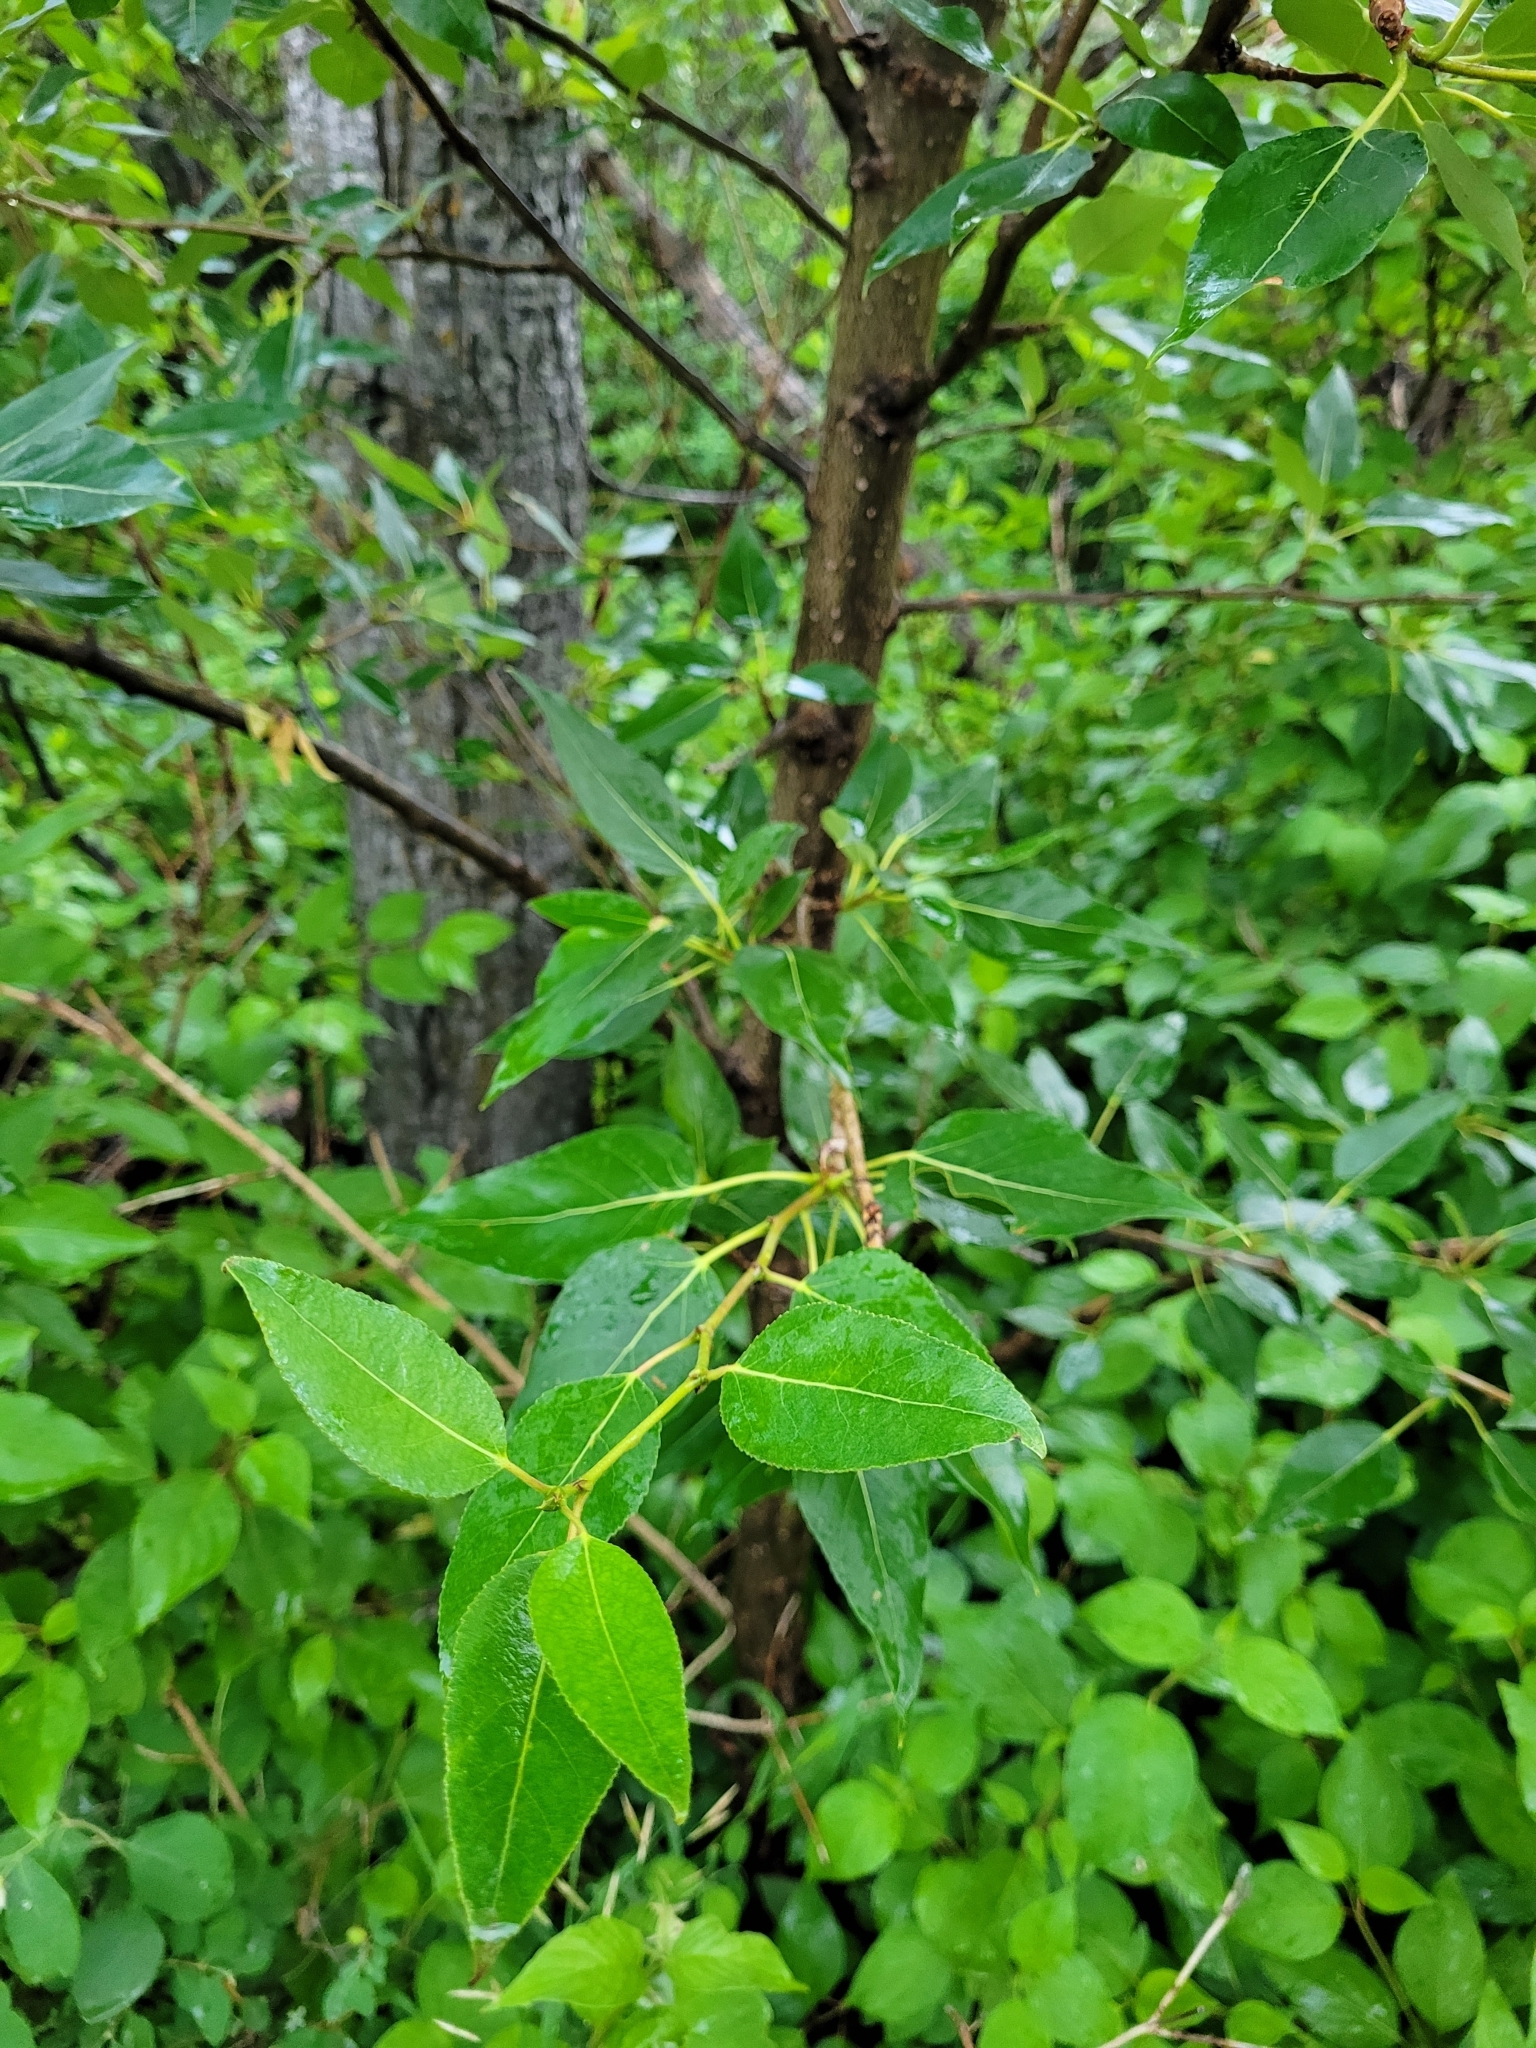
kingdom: Plantae
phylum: Tracheophyta
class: Magnoliopsida
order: Malpighiales
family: Salicaceae
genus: Populus
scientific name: Populus balsamifera
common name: Balsam poplar
